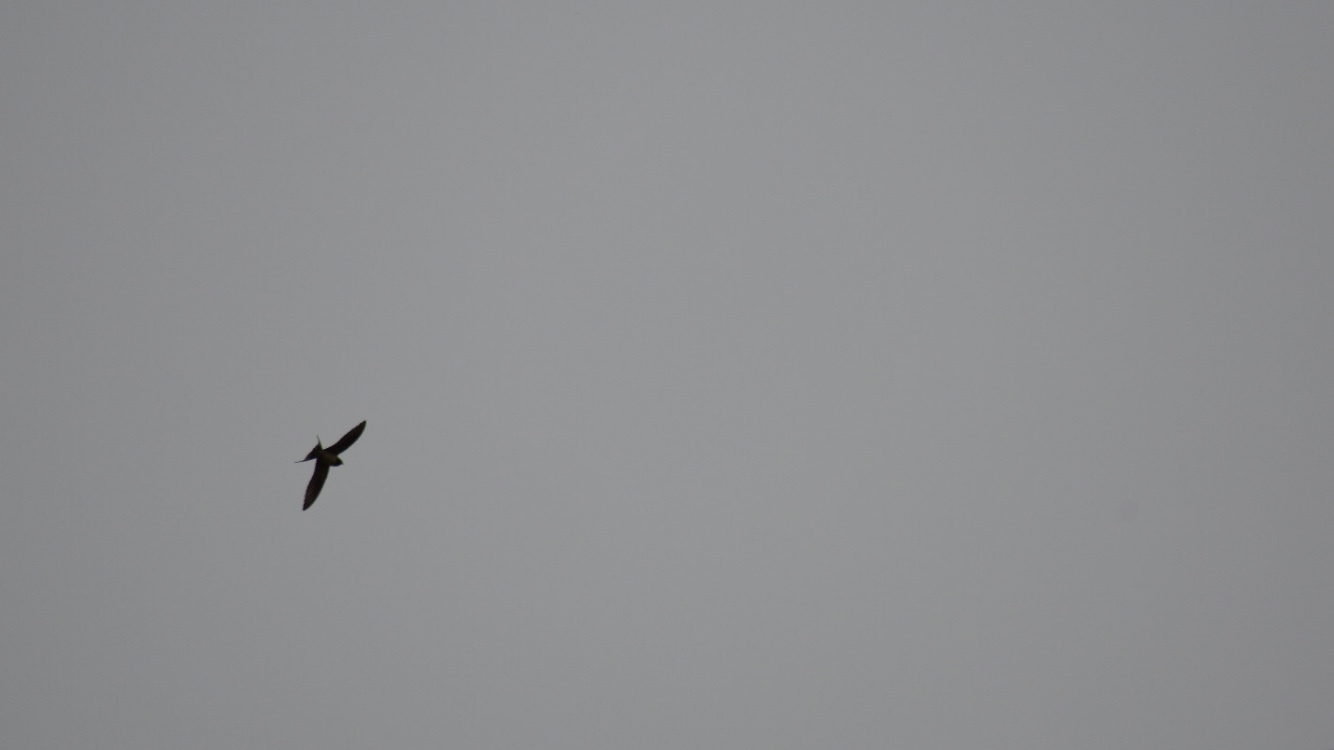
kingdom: Animalia
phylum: Chordata
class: Aves
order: Passeriformes
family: Hirundinidae
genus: Hirundo
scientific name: Hirundo rustica
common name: Barn swallow
